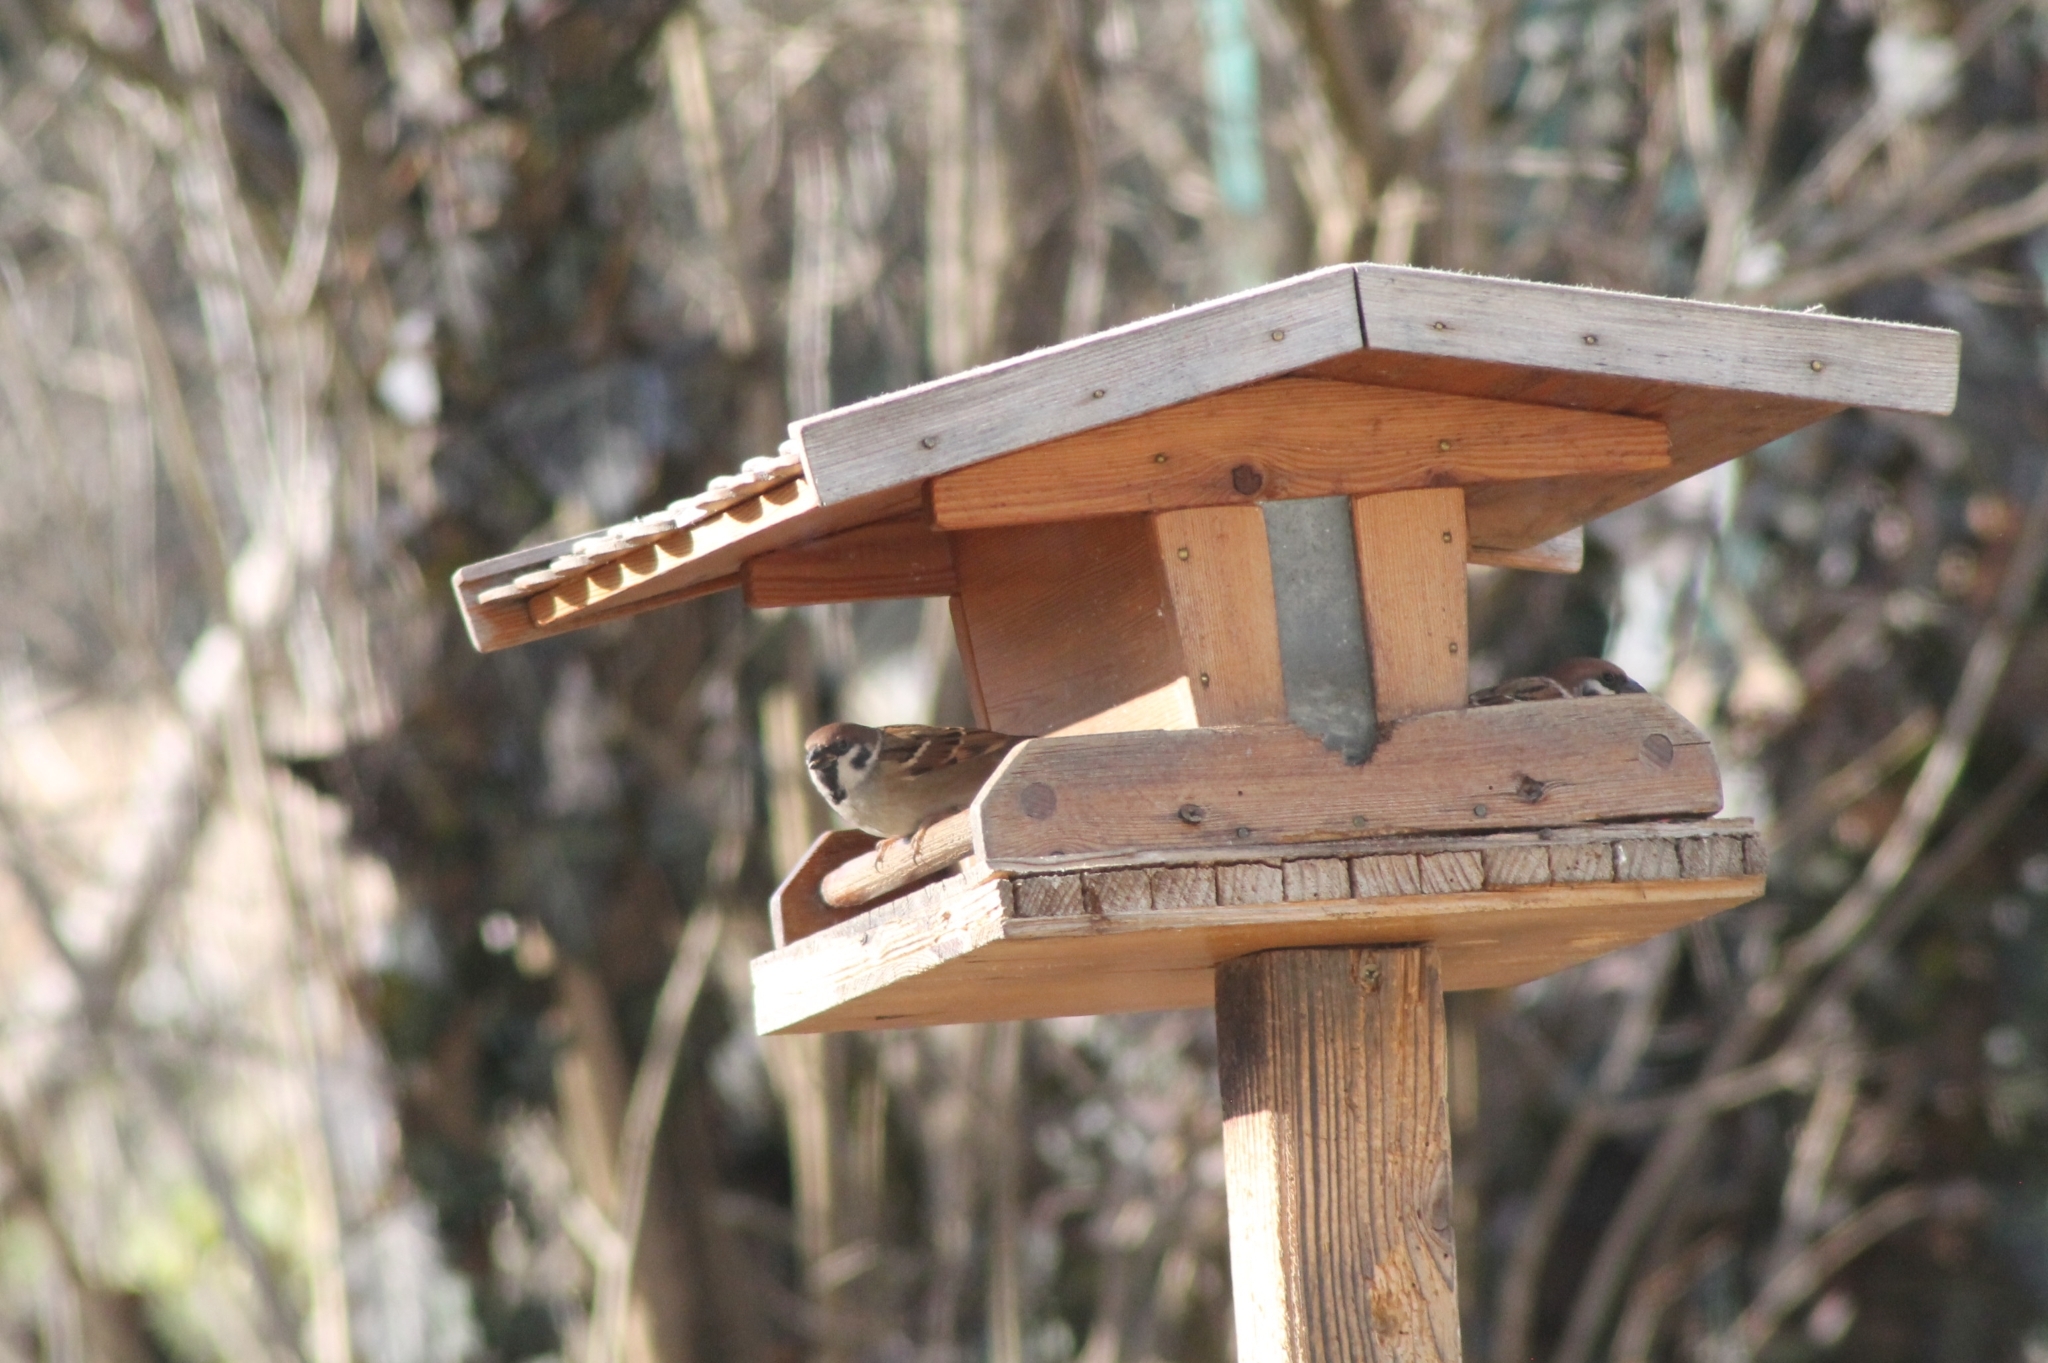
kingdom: Animalia
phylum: Chordata
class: Aves
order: Passeriformes
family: Passeridae
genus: Passer
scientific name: Passer montanus
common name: Eurasian tree sparrow
